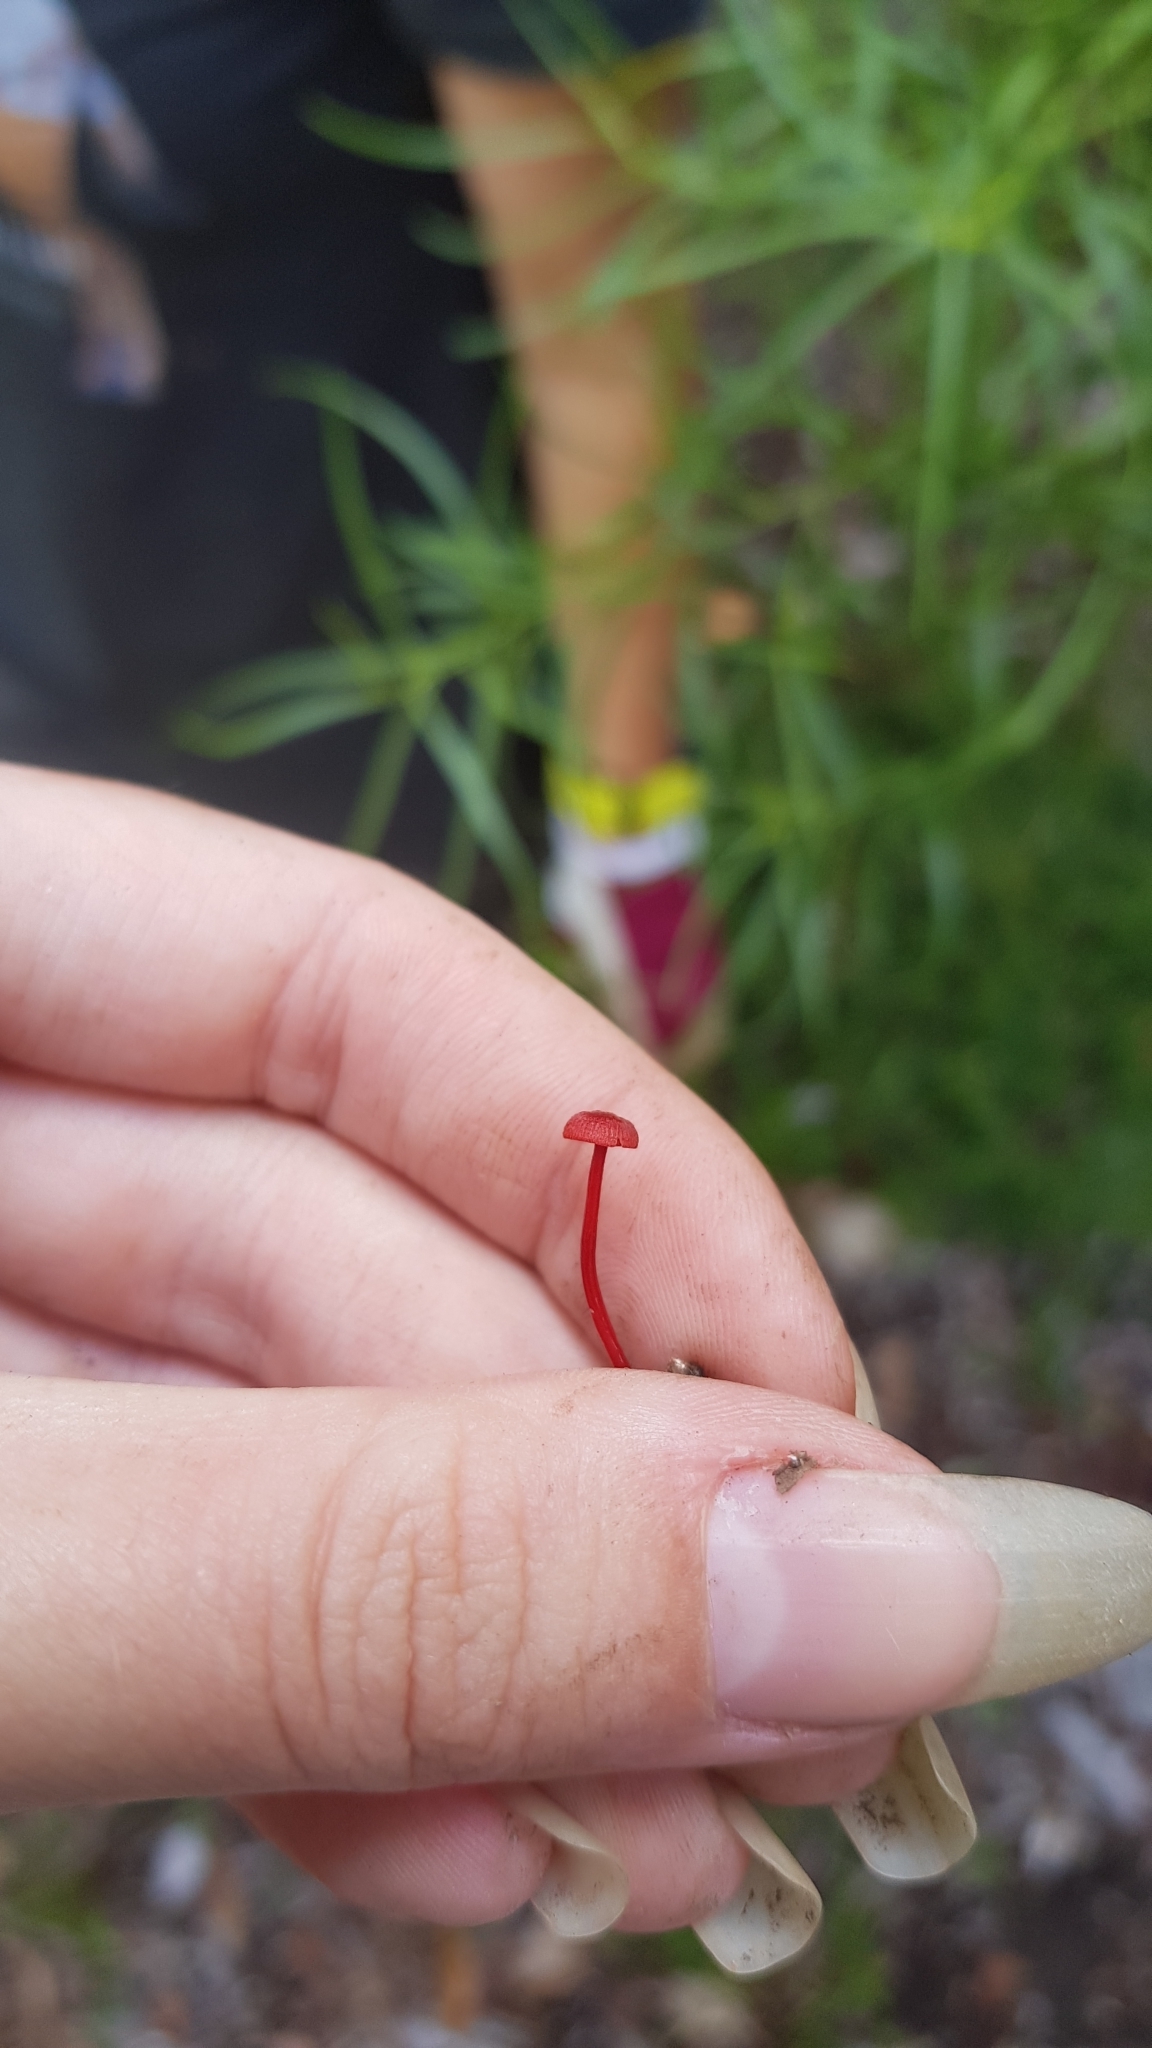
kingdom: Fungi
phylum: Basidiomycota
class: Agaricomycetes
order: Agaricales
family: Mycenaceae
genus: Cruentomycena
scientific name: Cruentomycena viscidocruenta
